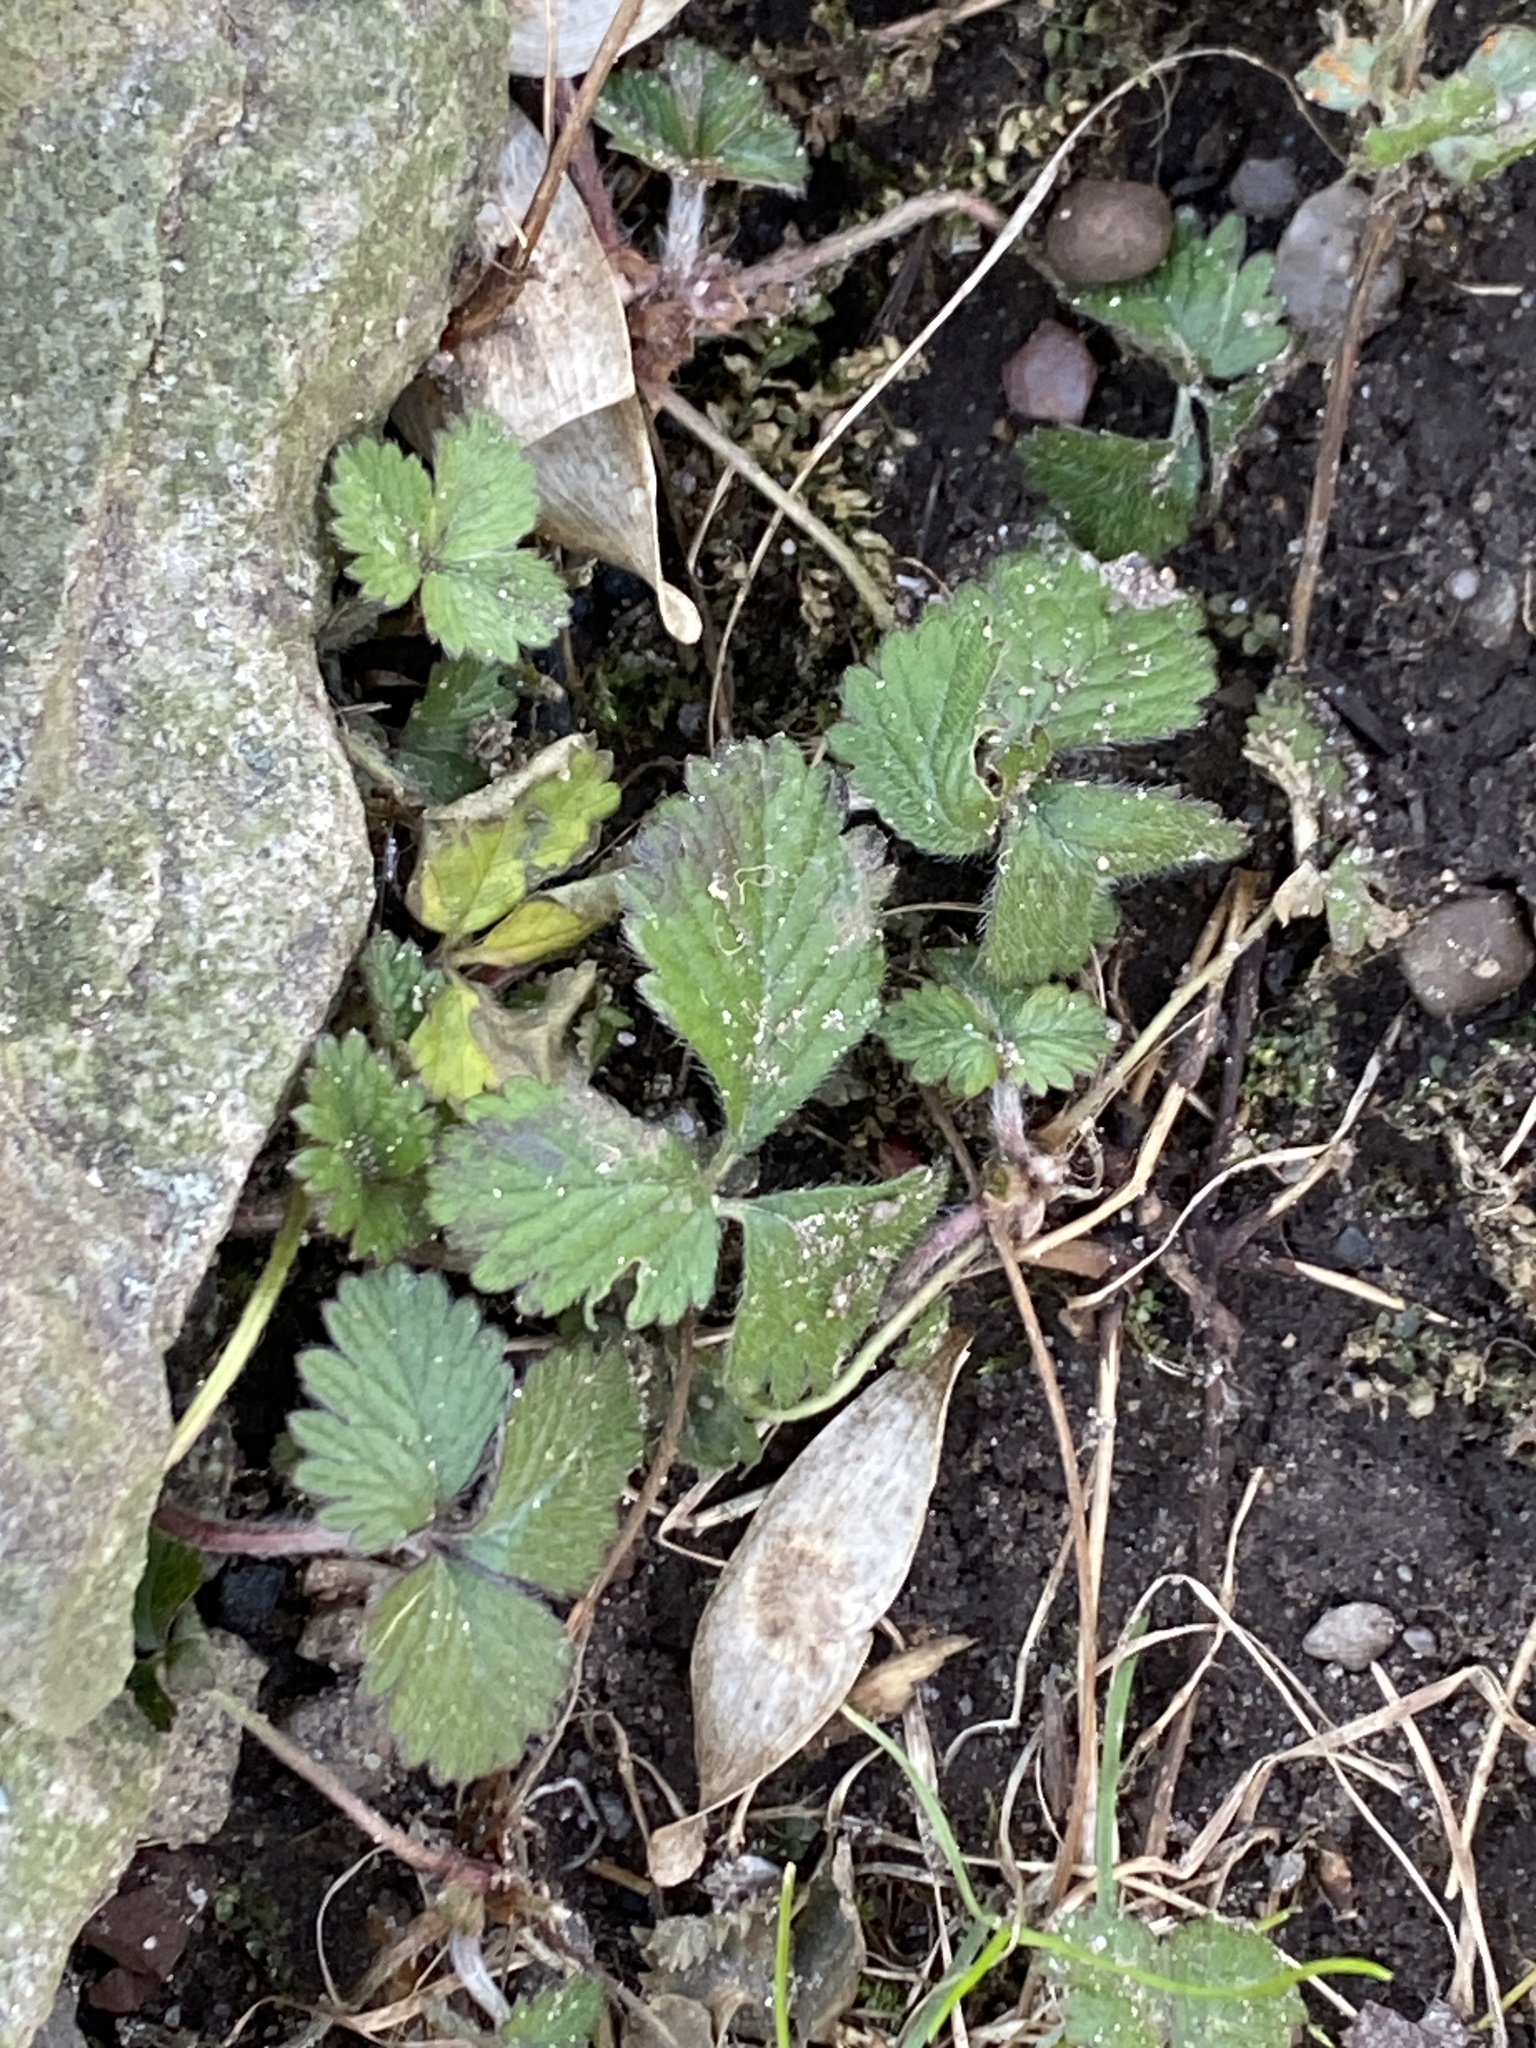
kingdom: Plantae
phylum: Tracheophyta
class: Magnoliopsida
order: Rosales
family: Rosaceae
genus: Potentilla
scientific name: Potentilla indica
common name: Yellow-flowered strawberry
